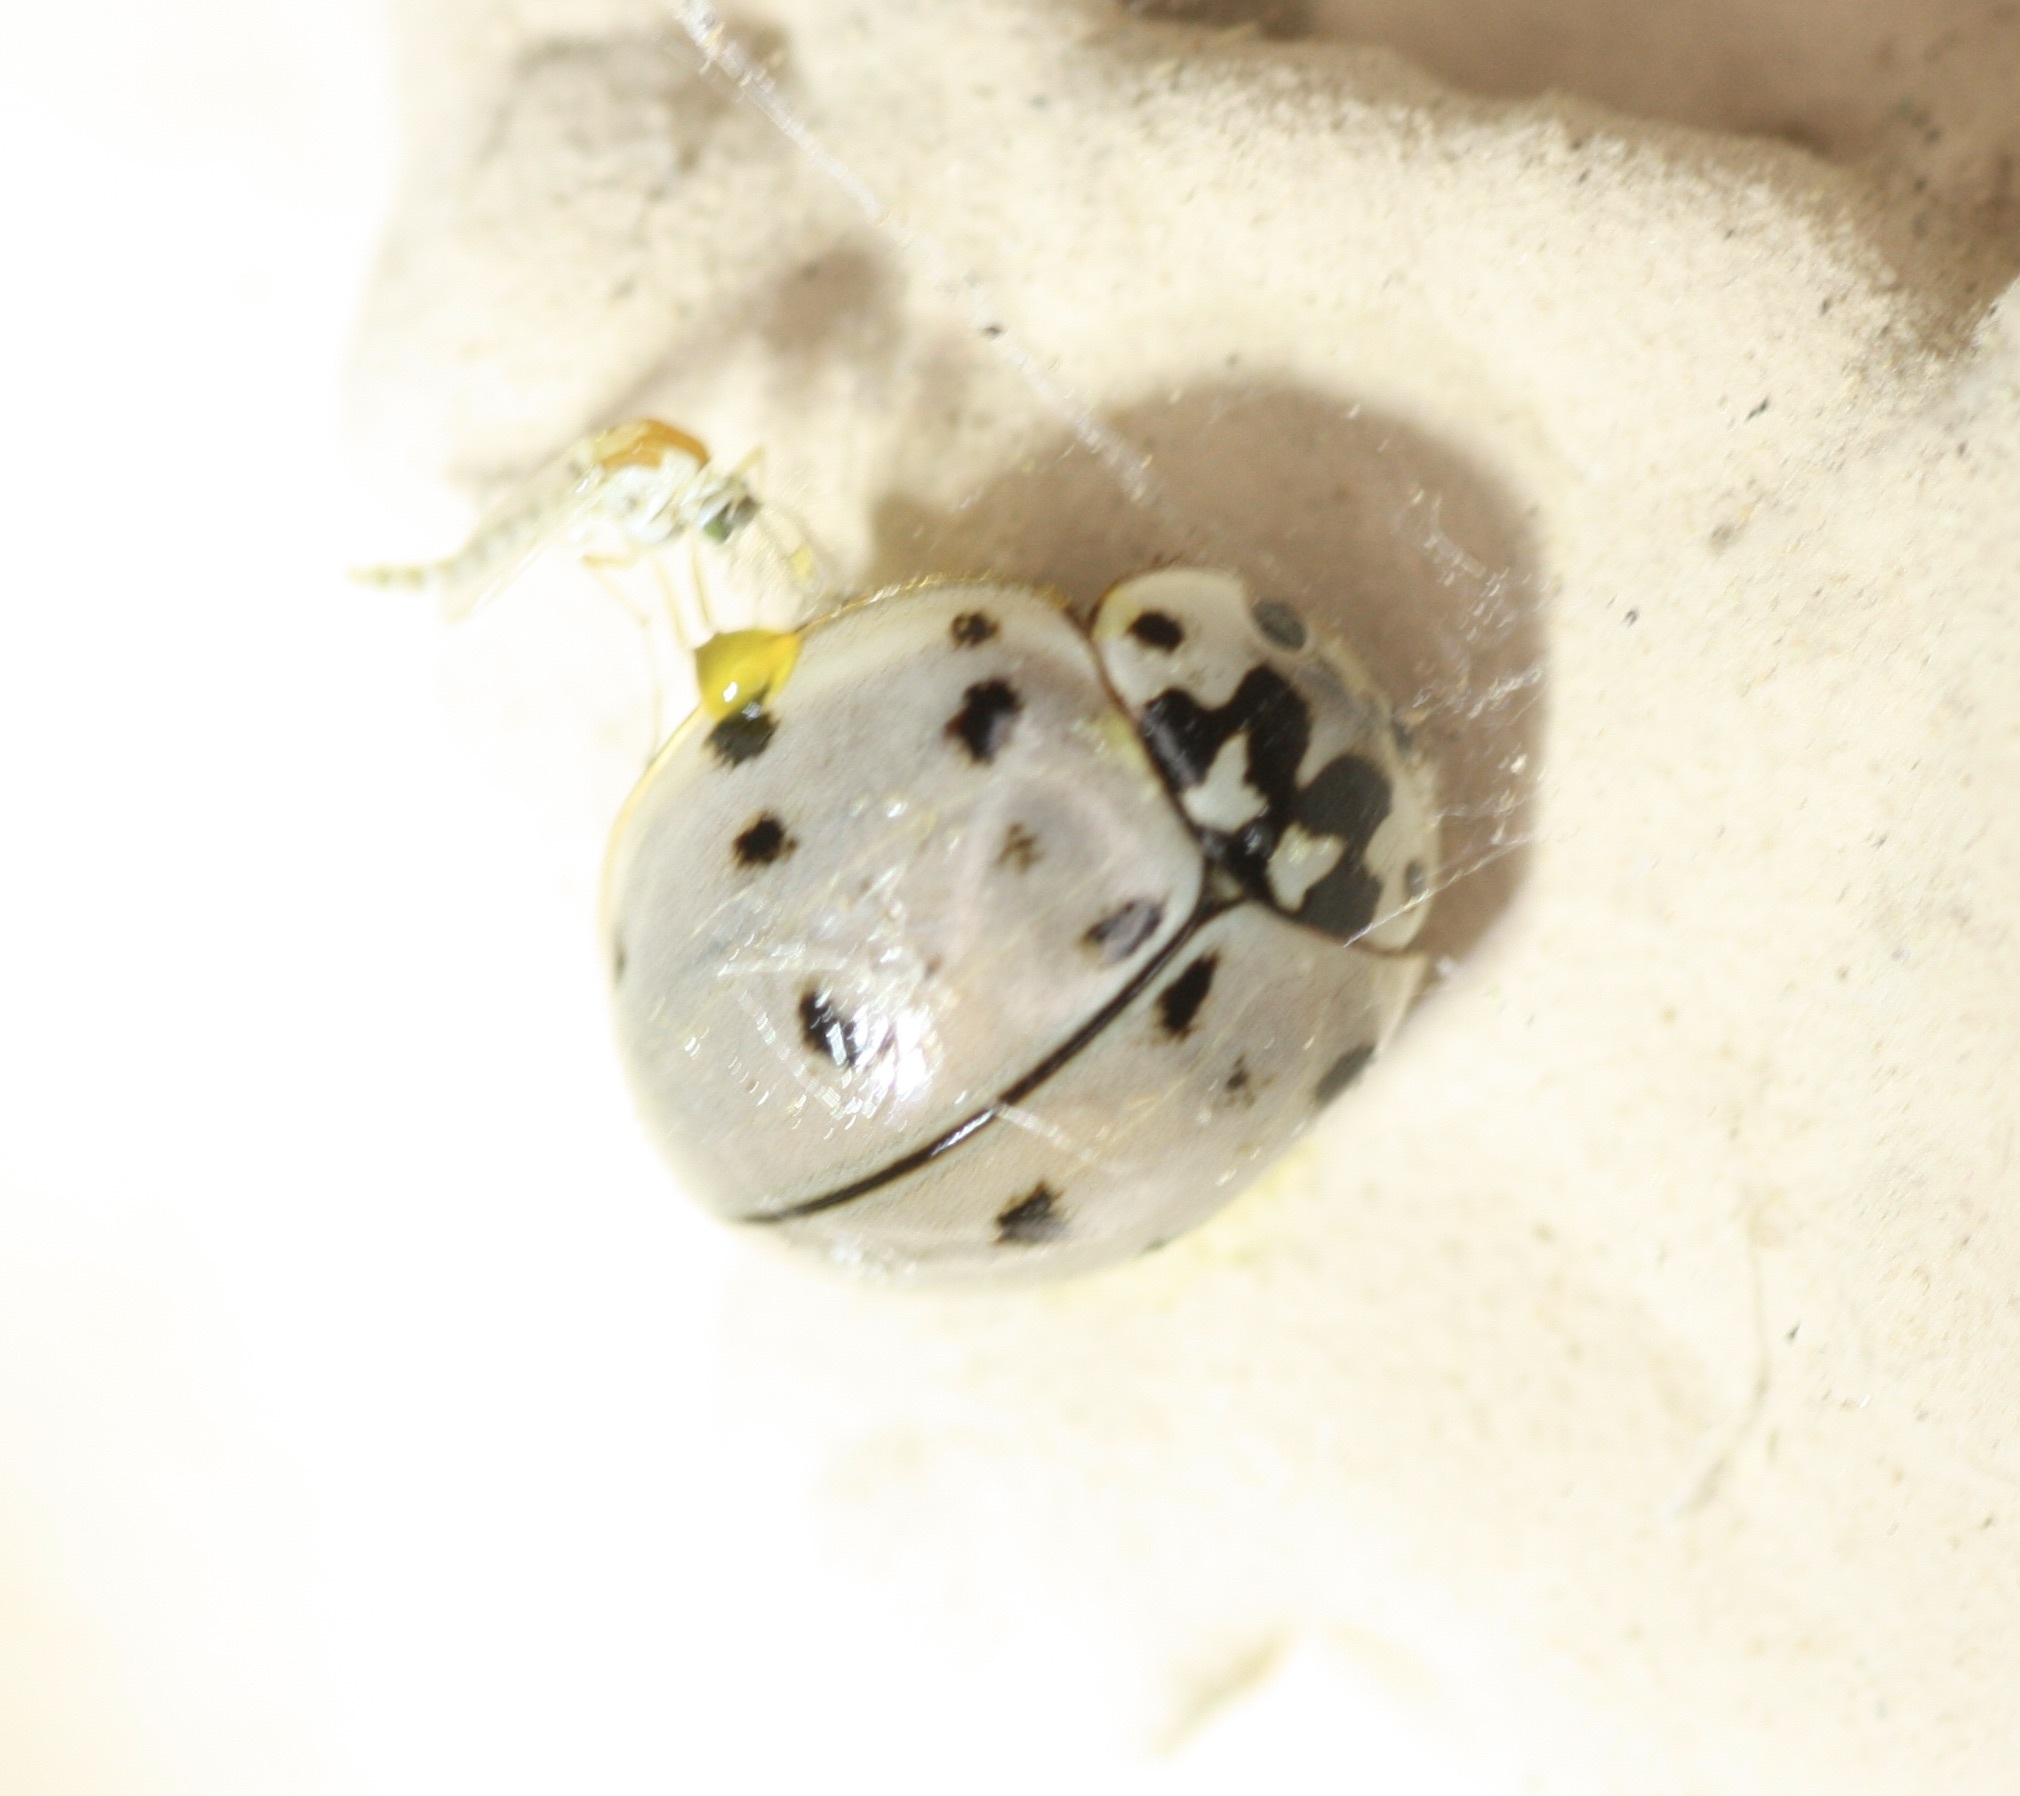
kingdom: Animalia
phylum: Arthropoda
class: Insecta
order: Coleoptera
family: Coccinellidae
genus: Olla
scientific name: Olla v-nigrum
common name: Ashy gray lady beetle
